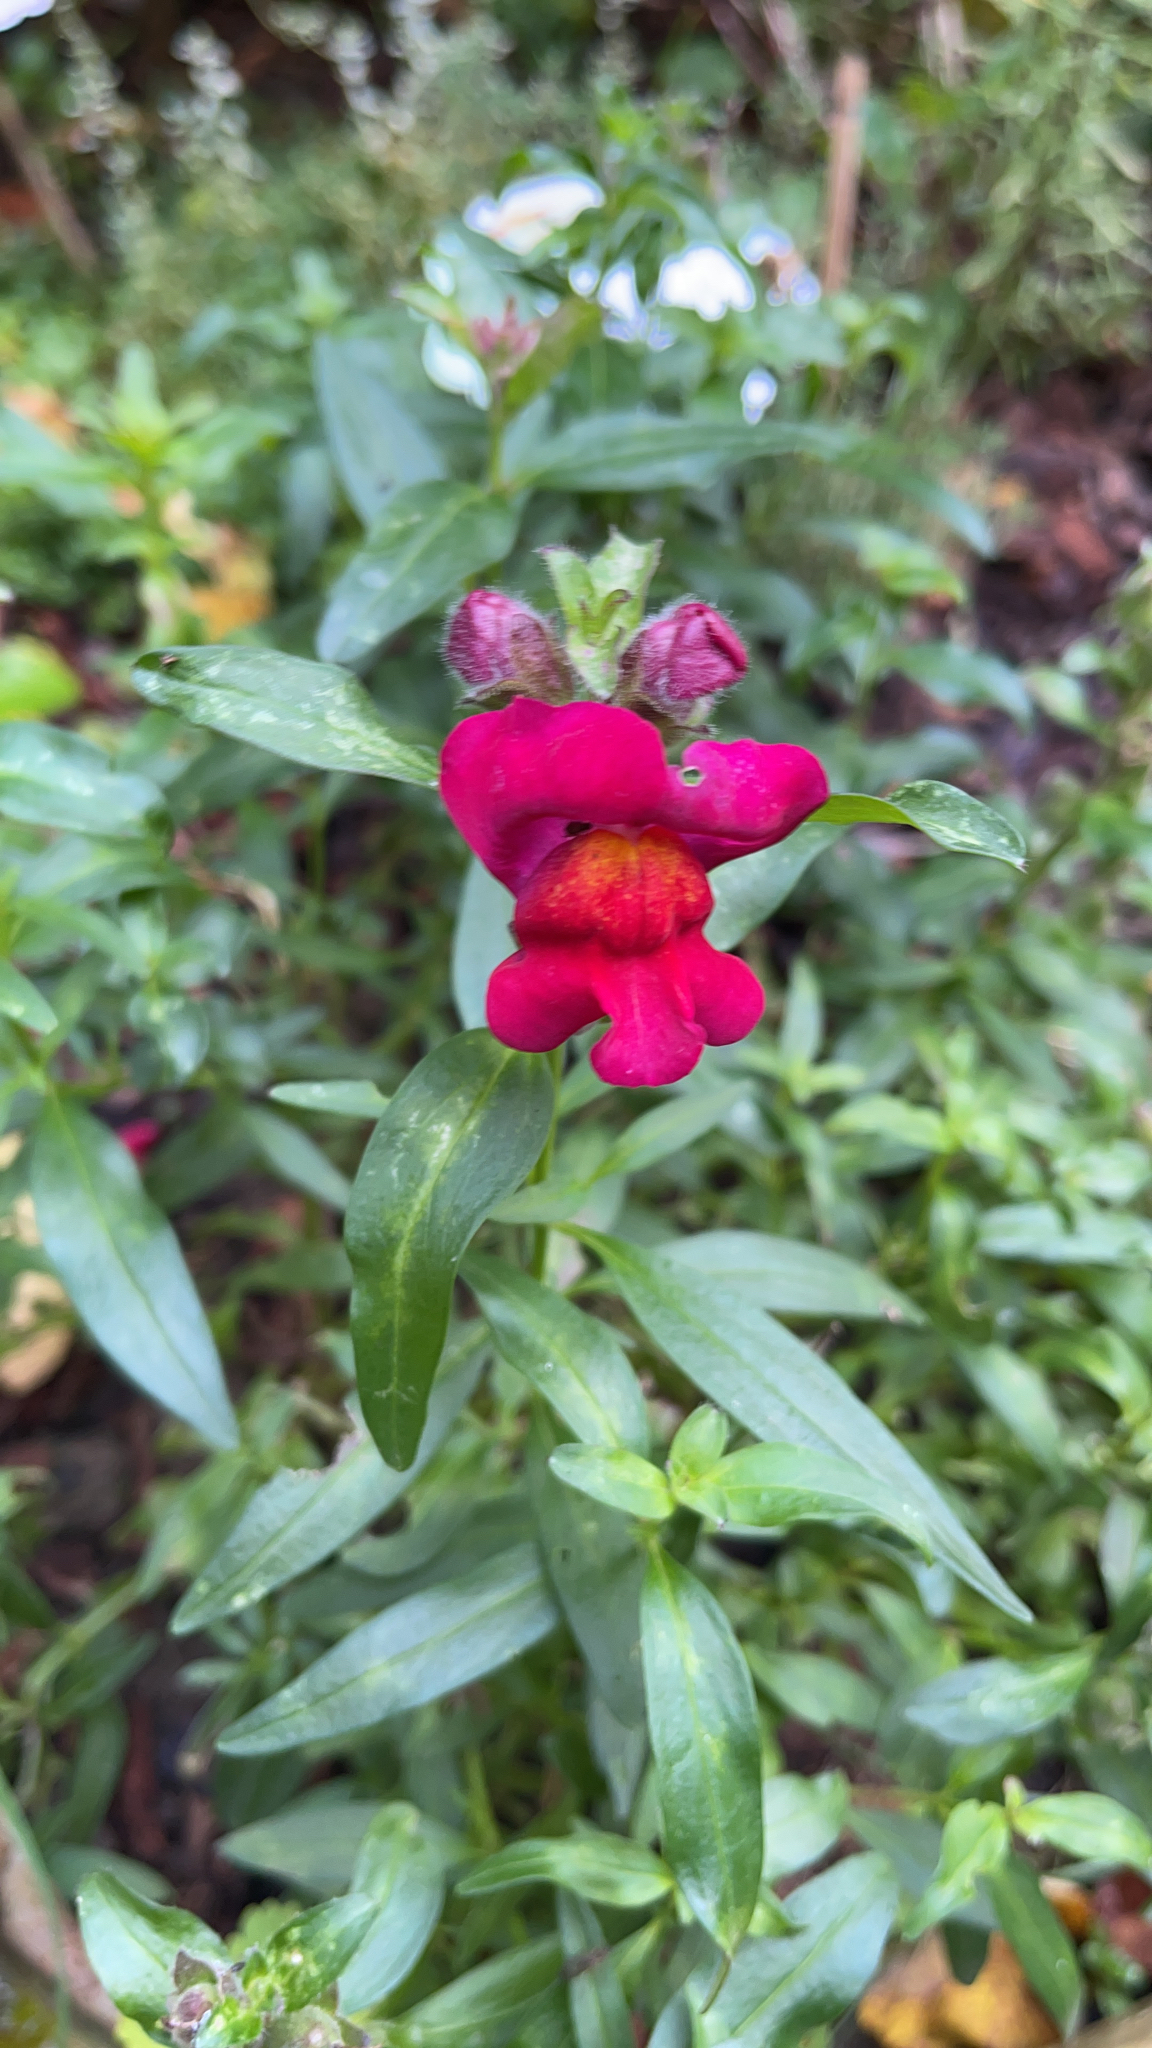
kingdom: Plantae
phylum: Tracheophyta
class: Magnoliopsida
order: Lamiales
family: Plantaginaceae
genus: Antirrhinum
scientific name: Antirrhinum majus
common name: Snapdragon
